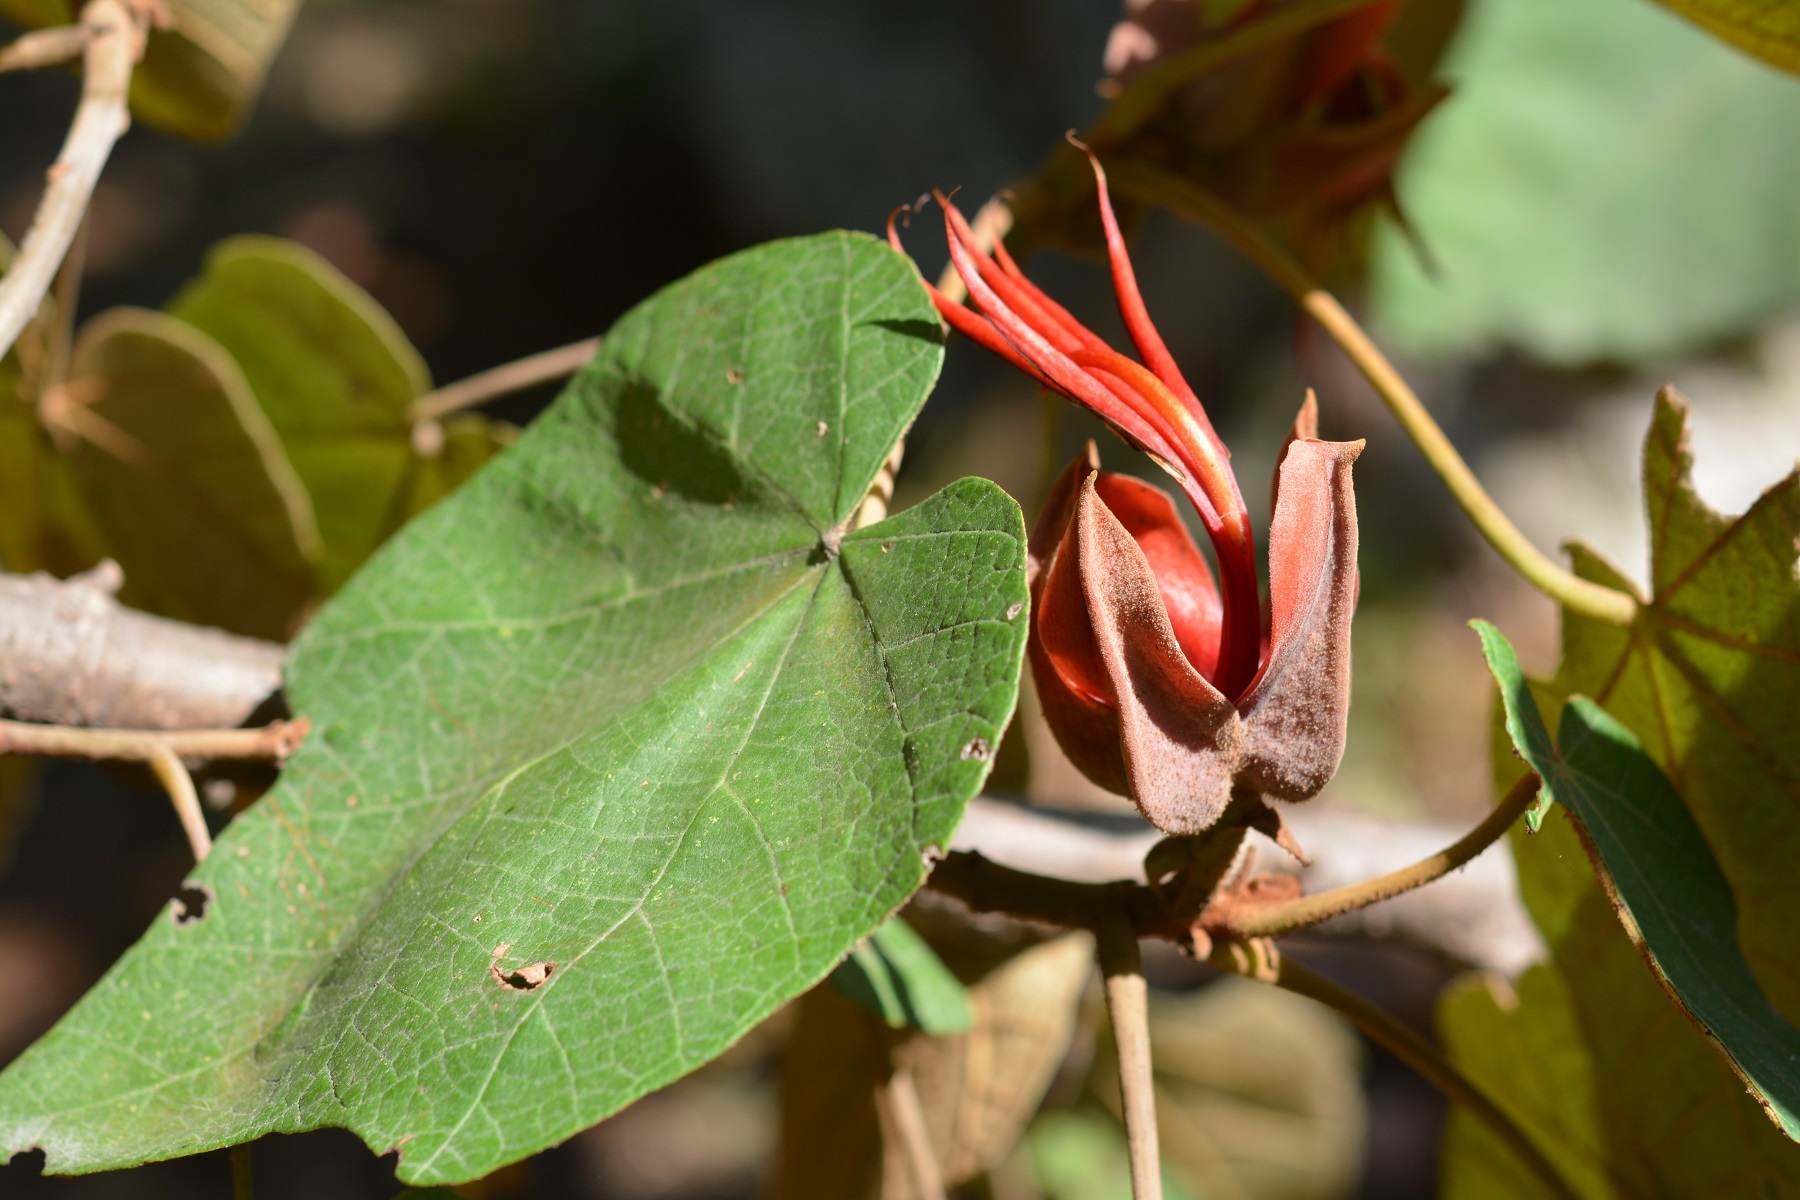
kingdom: Plantae
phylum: Tracheophyta
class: Magnoliopsida
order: Malvales
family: Malvaceae
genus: Chiranthodendron
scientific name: Chiranthodendron pentadactylon
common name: Mexican-hat-plant
